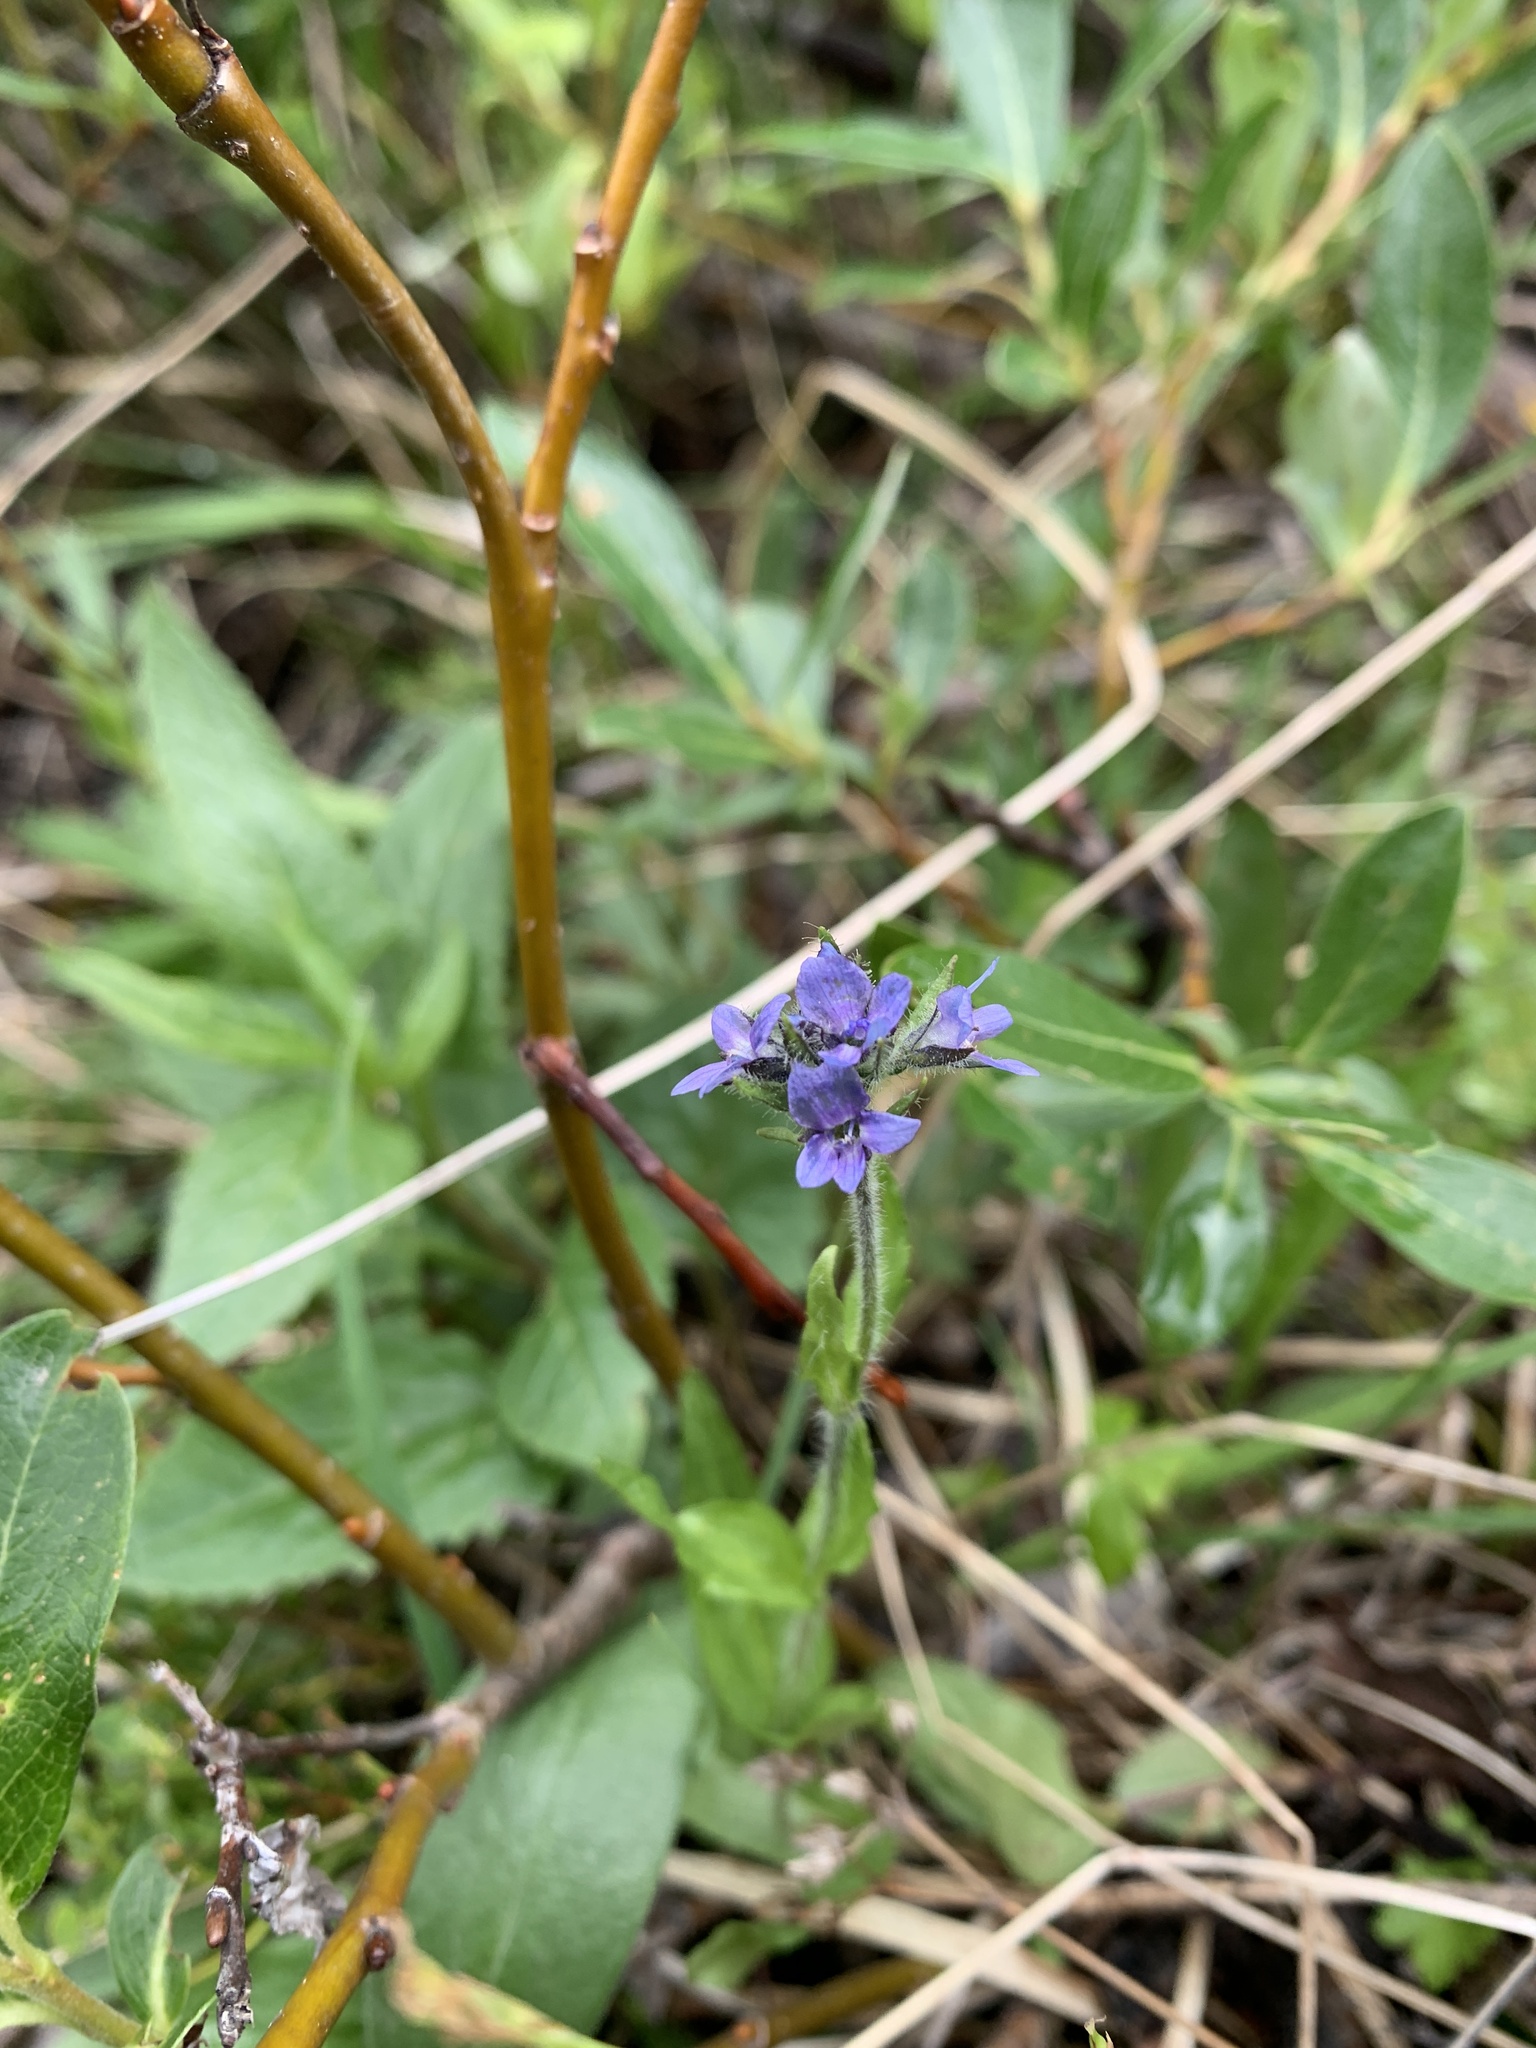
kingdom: Plantae
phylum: Tracheophyta
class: Magnoliopsida
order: Lamiales
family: Plantaginaceae
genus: Veronica
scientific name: Veronica wormskjoldii
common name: American alpine speedwell
